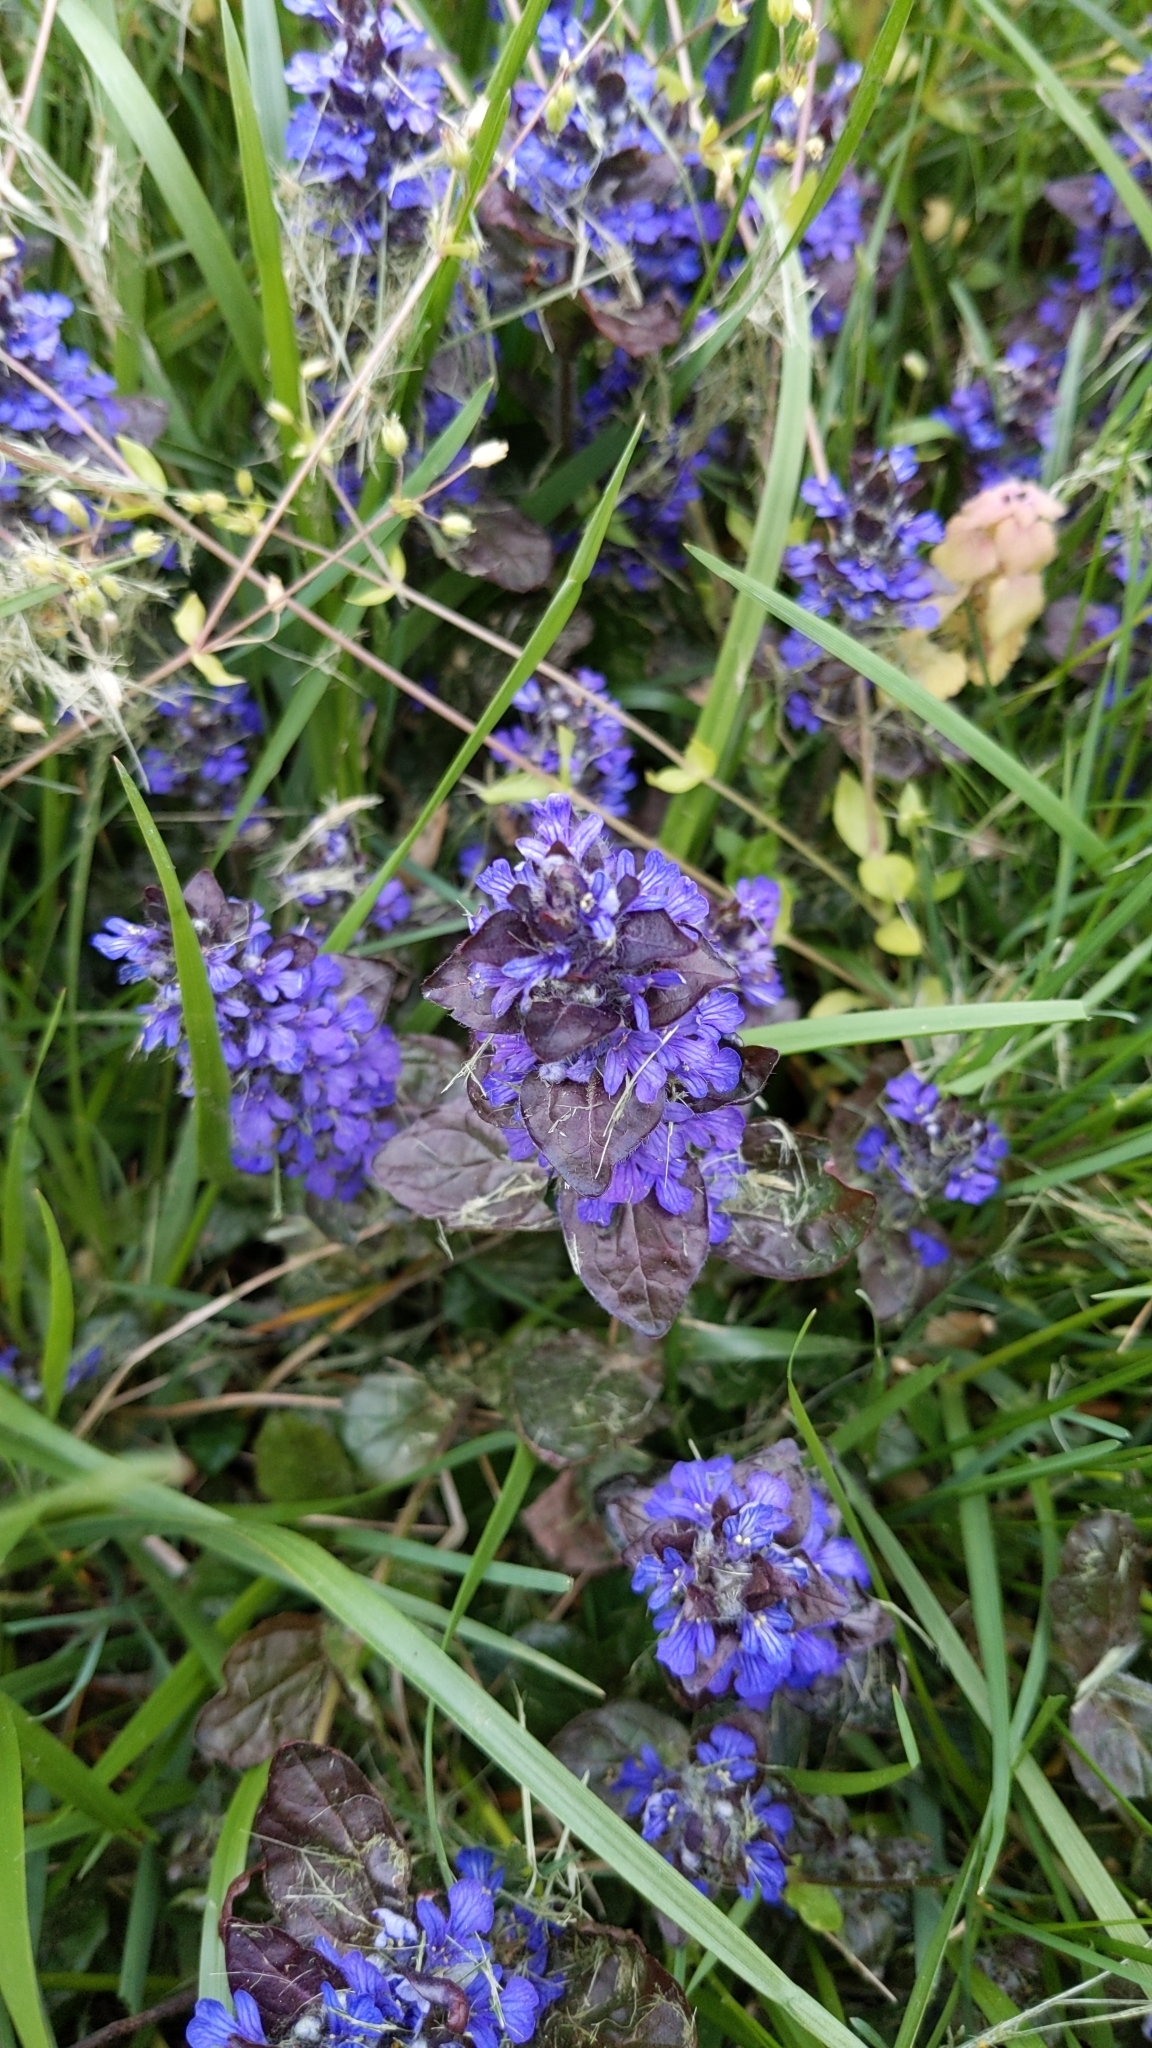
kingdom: Plantae
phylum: Tracheophyta
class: Magnoliopsida
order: Lamiales
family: Lamiaceae
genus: Ajuga
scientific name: Ajuga reptans
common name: Bugle
